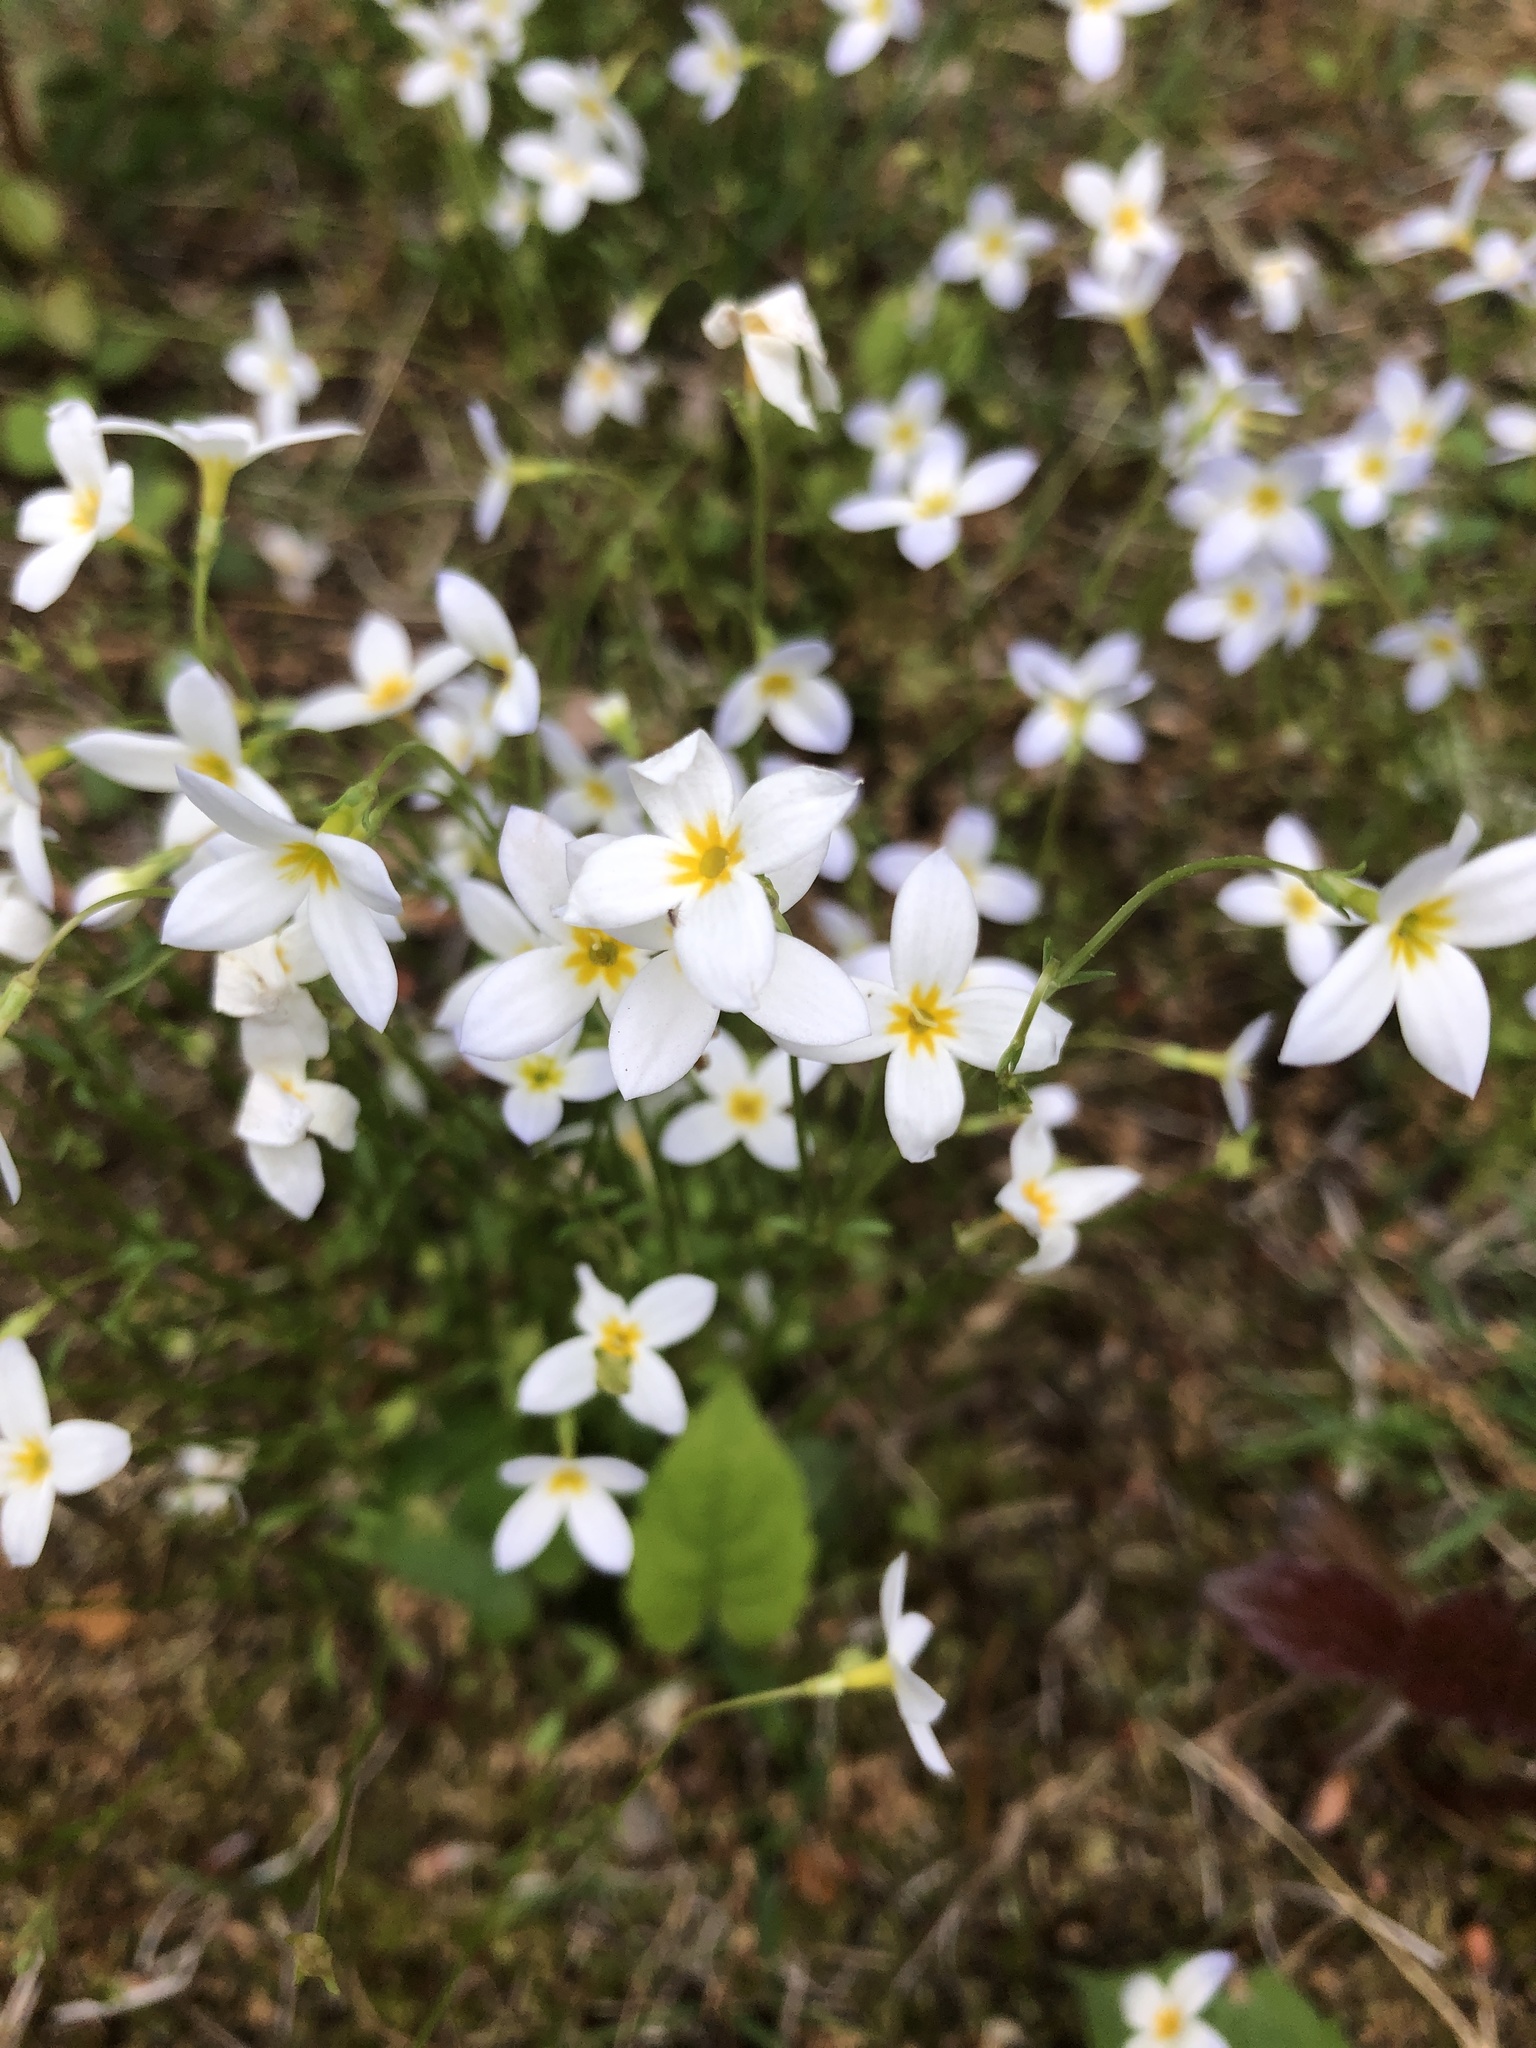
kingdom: Plantae
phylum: Tracheophyta
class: Magnoliopsida
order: Gentianales
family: Rubiaceae
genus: Houstonia
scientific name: Houstonia caerulea
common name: Bluets
